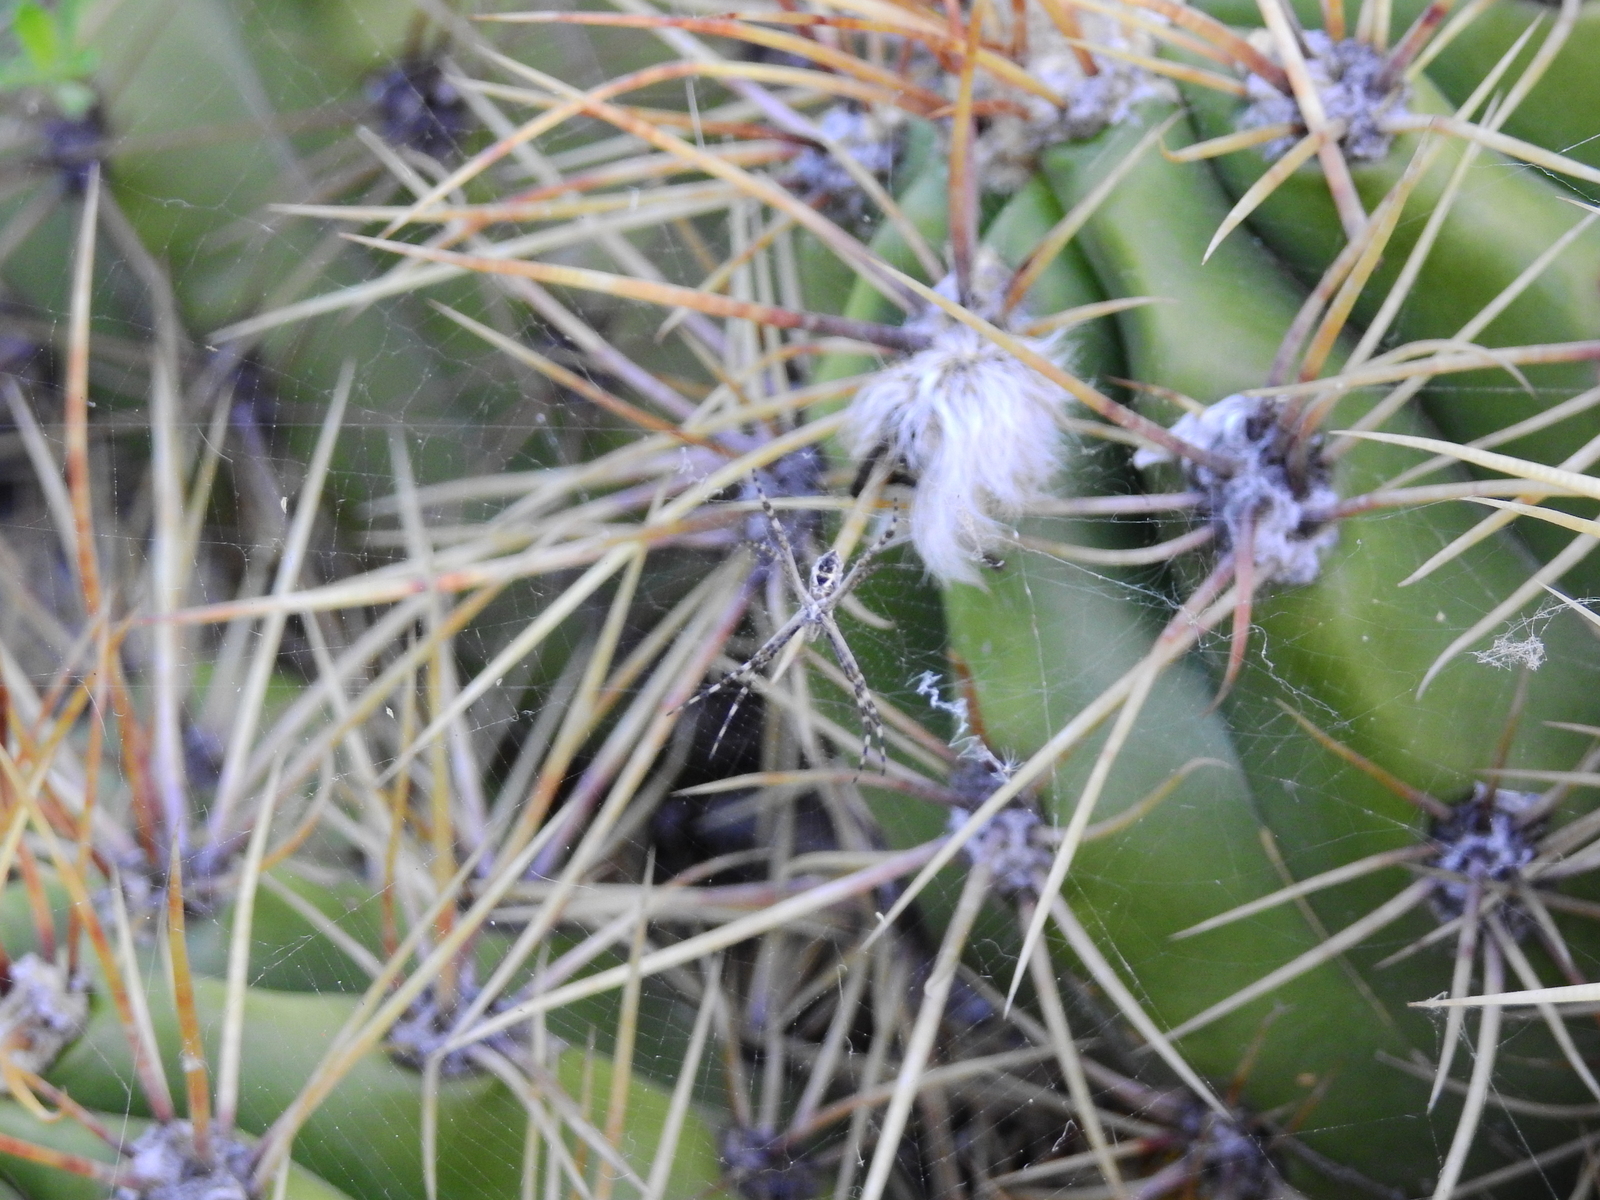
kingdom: Animalia
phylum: Arthropoda
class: Arachnida
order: Araneae
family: Araneidae
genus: Argiope
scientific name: Argiope argentata
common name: Orb weavers
